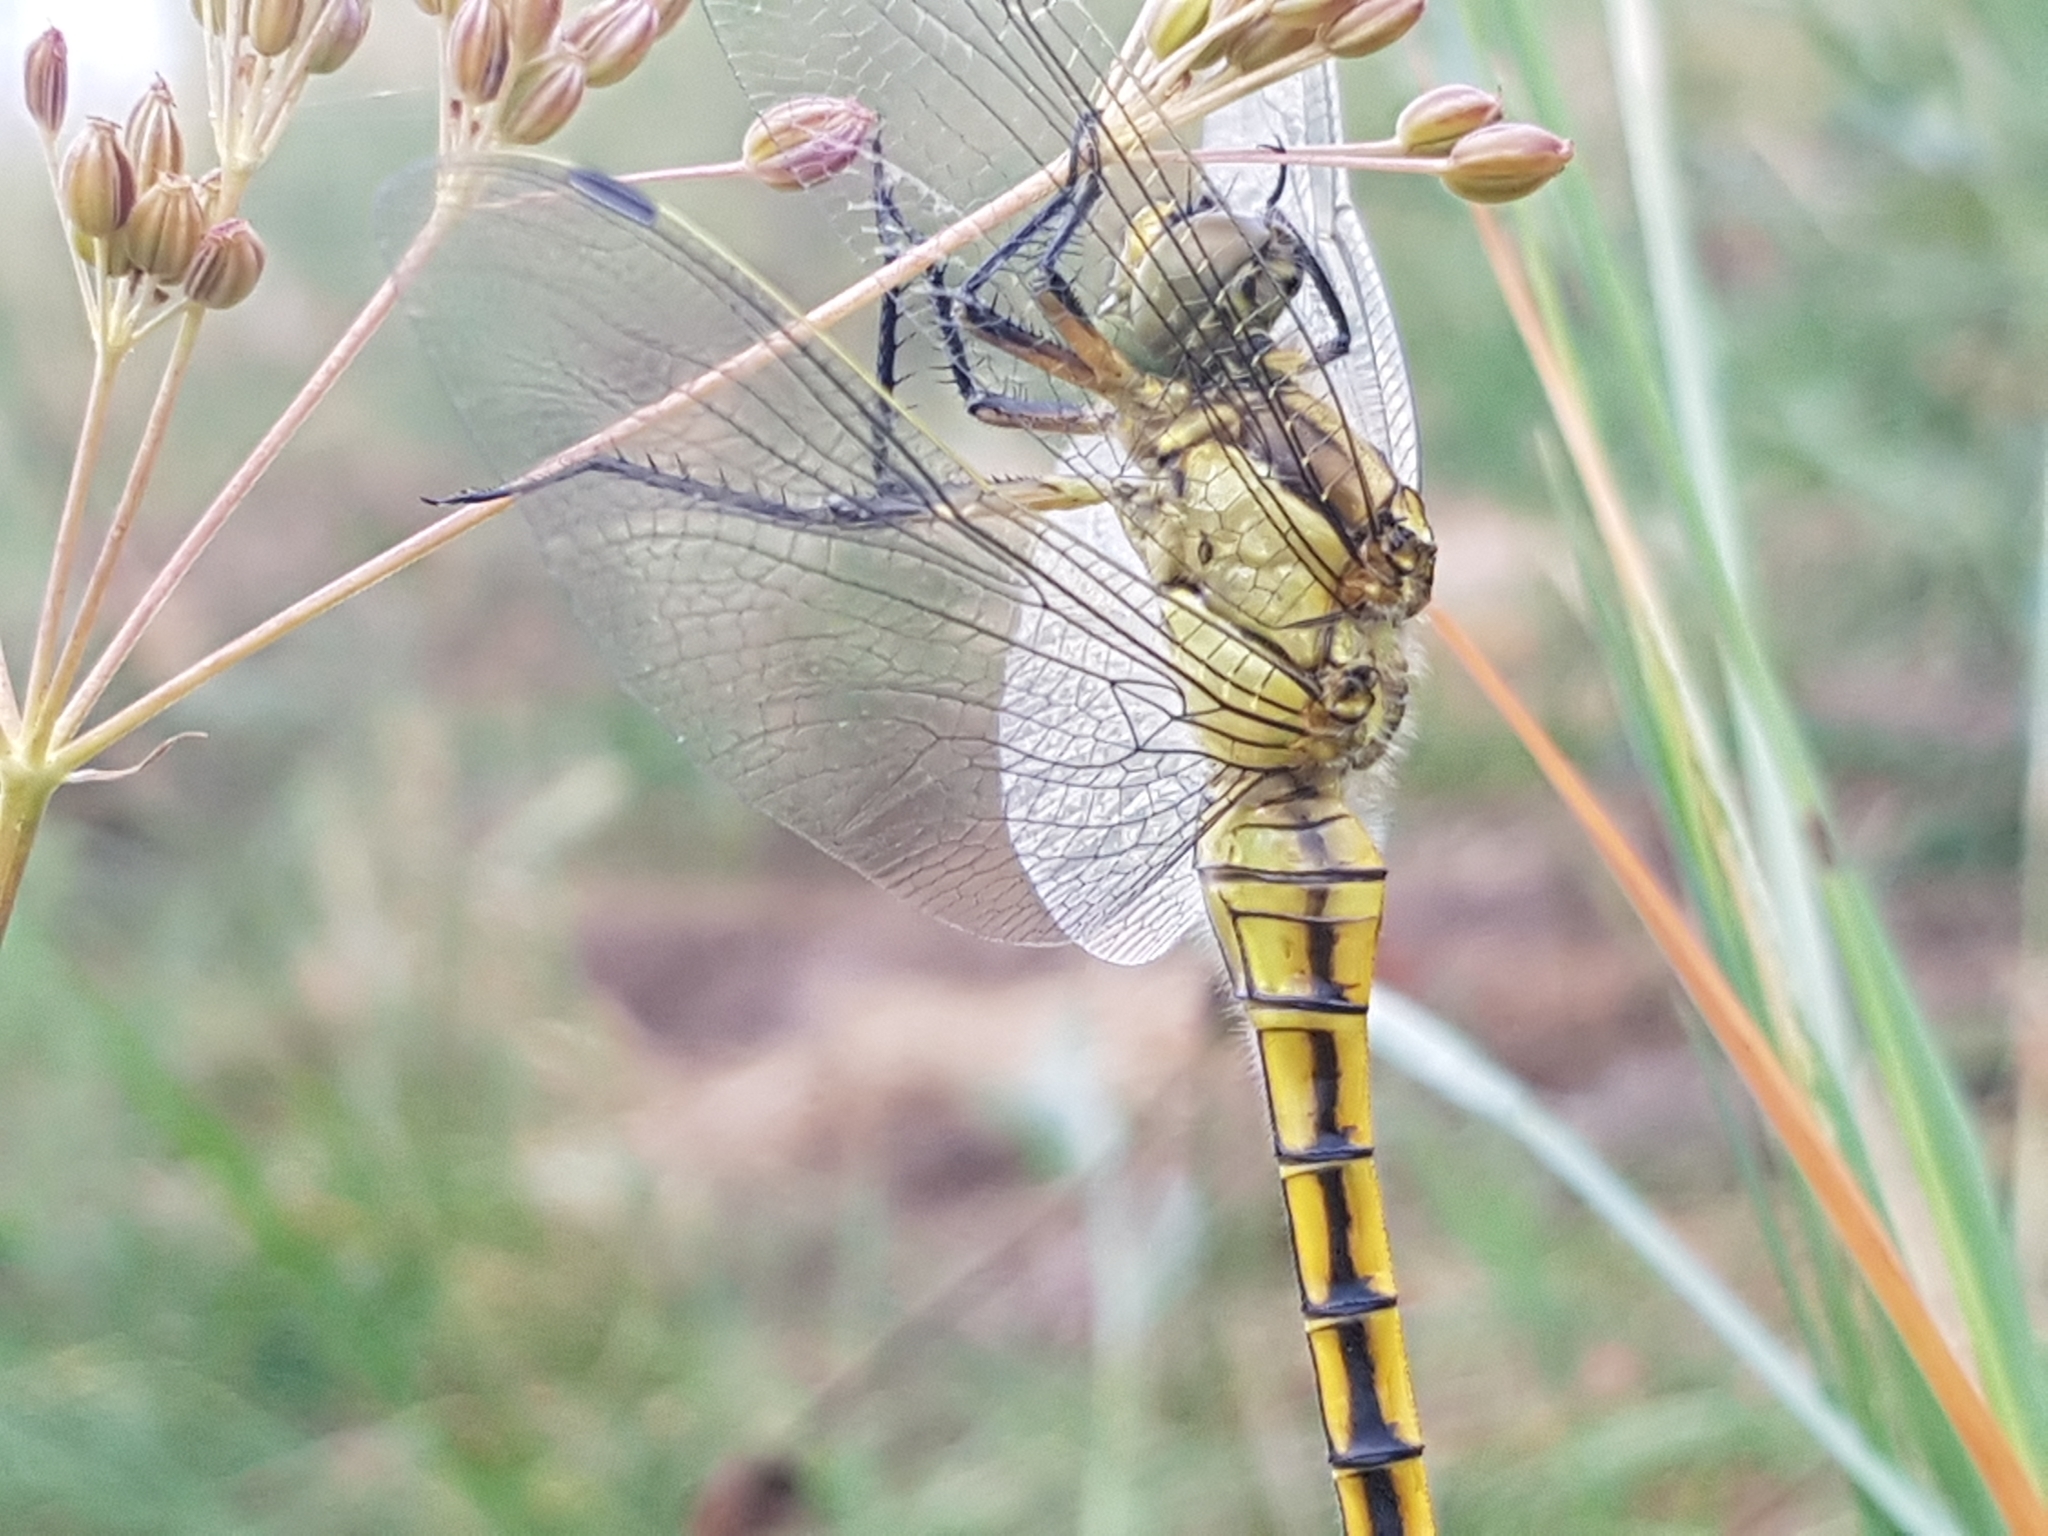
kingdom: Animalia
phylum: Arthropoda
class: Insecta
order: Odonata
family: Libellulidae
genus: Orthetrum
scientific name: Orthetrum cancellatum
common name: Black-tailed skimmer
